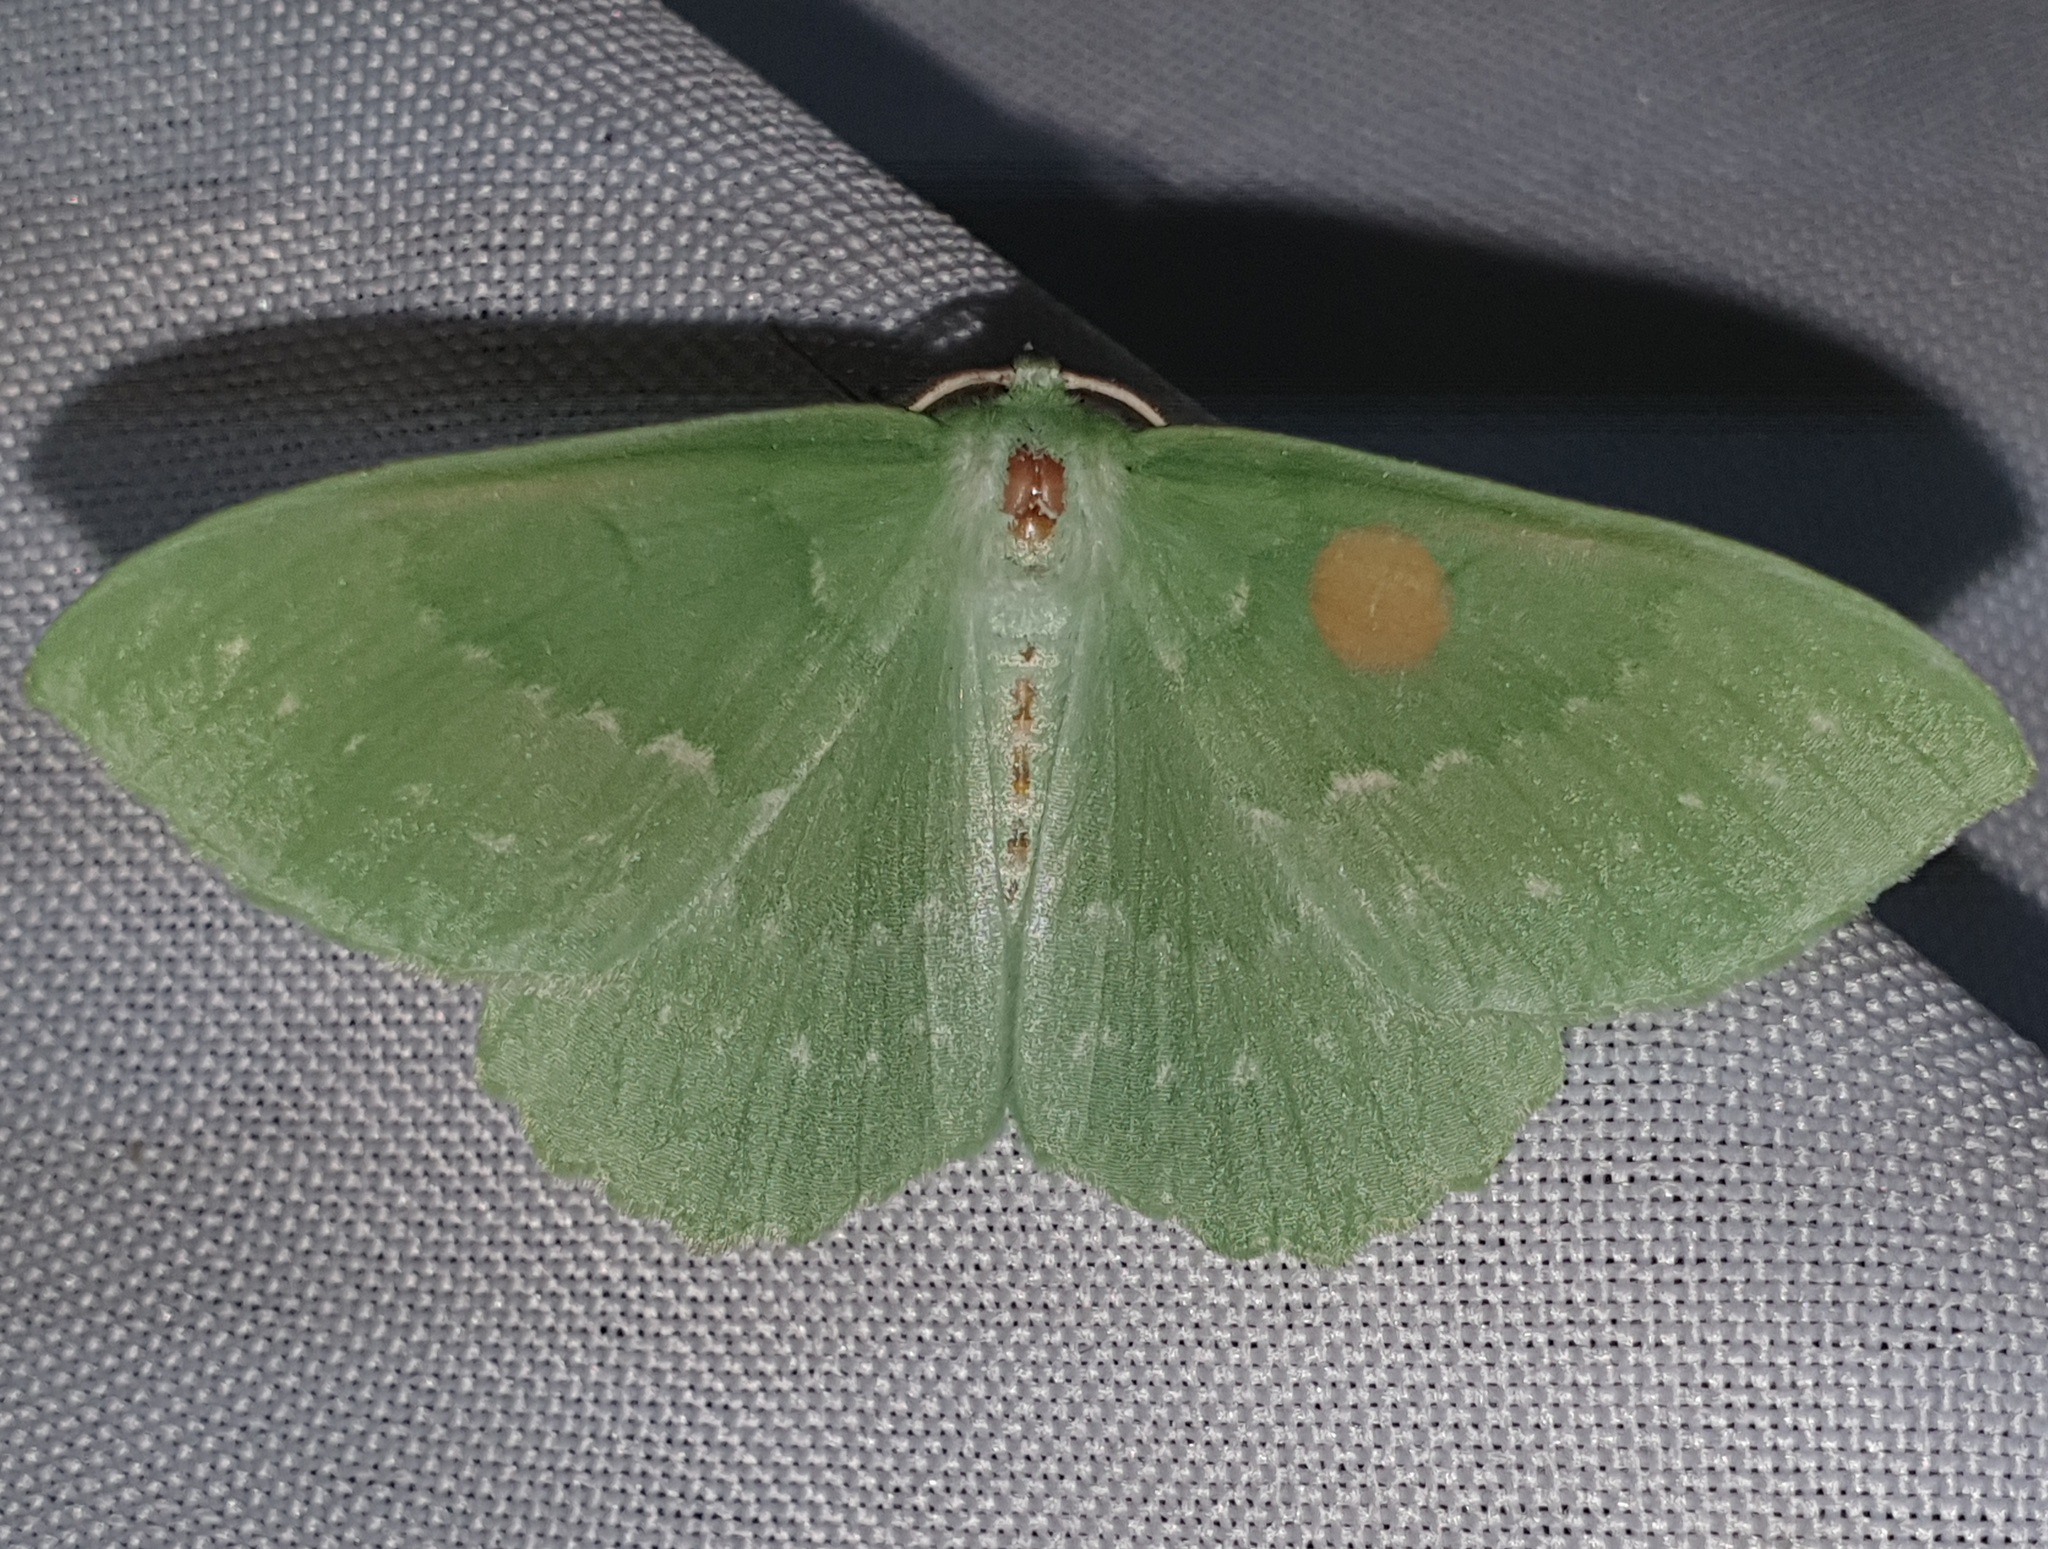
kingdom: Animalia
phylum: Arthropoda
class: Insecta
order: Lepidoptera
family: Geometridae
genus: Geometra
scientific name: Geometra papilionaria
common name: Large emerald
